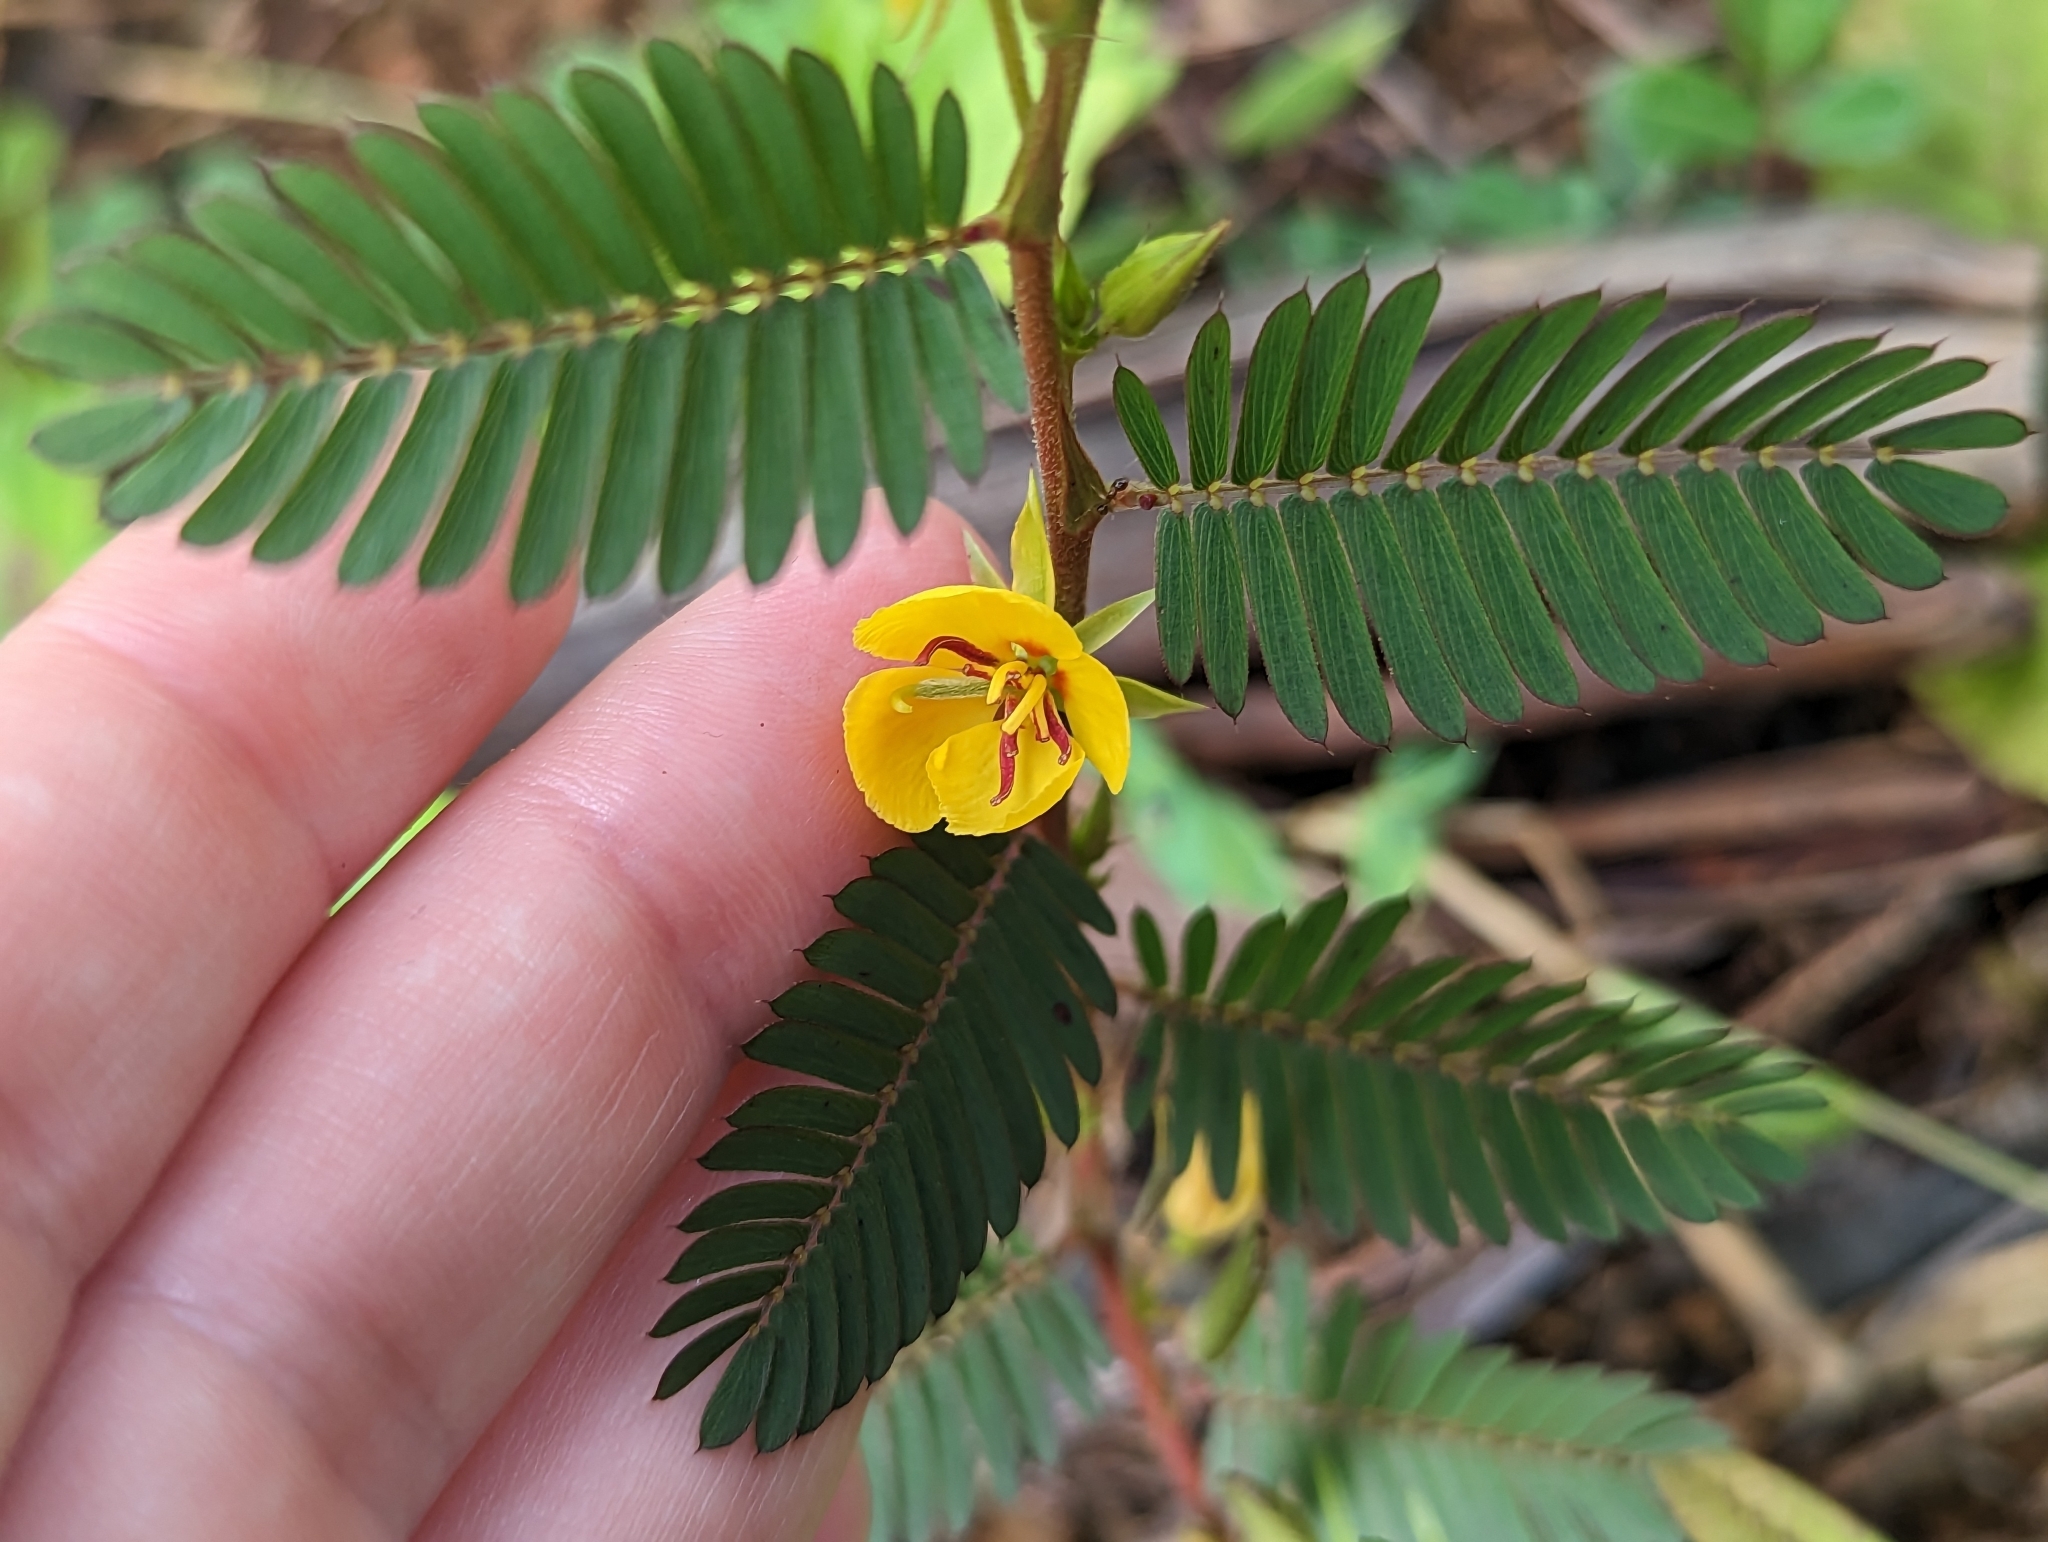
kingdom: Plantae
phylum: Tracheophyta
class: Magnoliopsida
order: Fabales
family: Fabaceae
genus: Chamaecrista
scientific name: Chamaecrista nictitans
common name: Sensitive cassia
